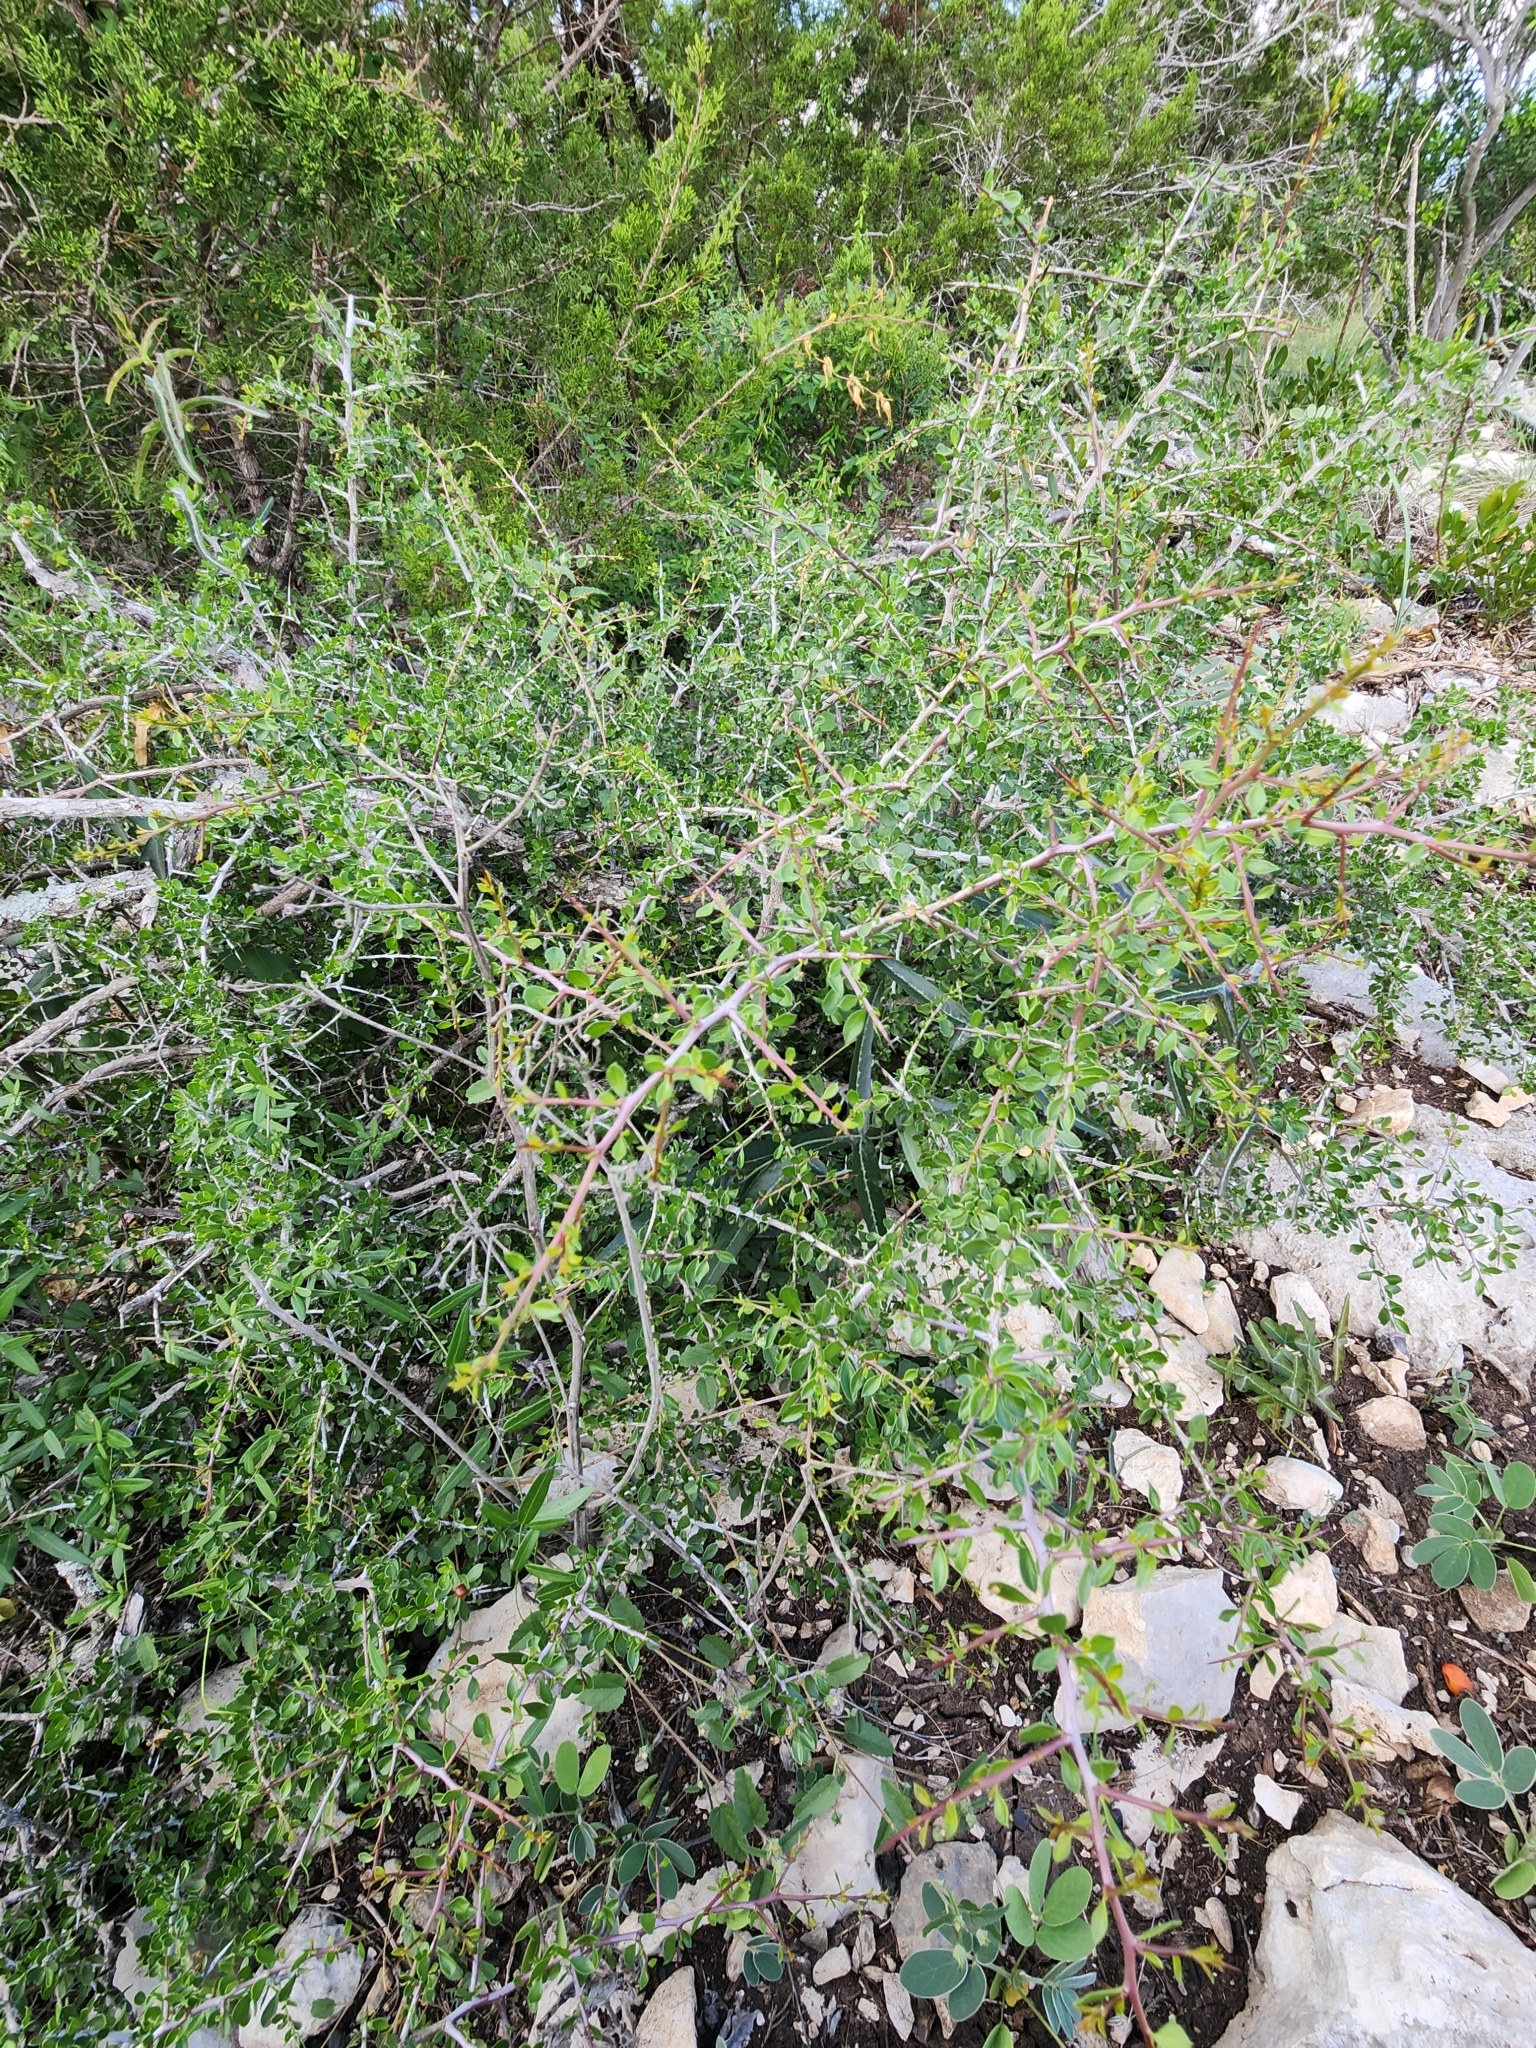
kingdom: Plantae
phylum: Tracheophyta
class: Magnoliopsida
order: Rosales
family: Rhamnaceae
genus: Condalia
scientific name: Condalia viridis
